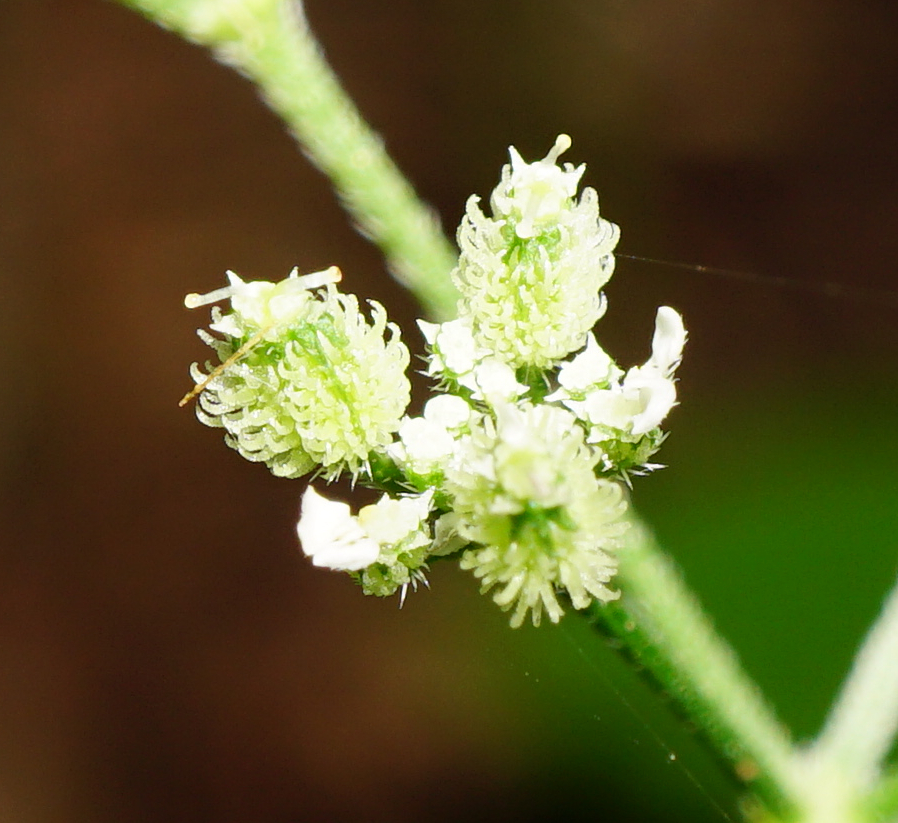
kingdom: Plantae
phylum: Tracheophyta
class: Magnoliopsida
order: Apiales
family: Apiaceae
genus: Torilis
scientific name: Torilis japonica
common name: Upright hedge-parsley
